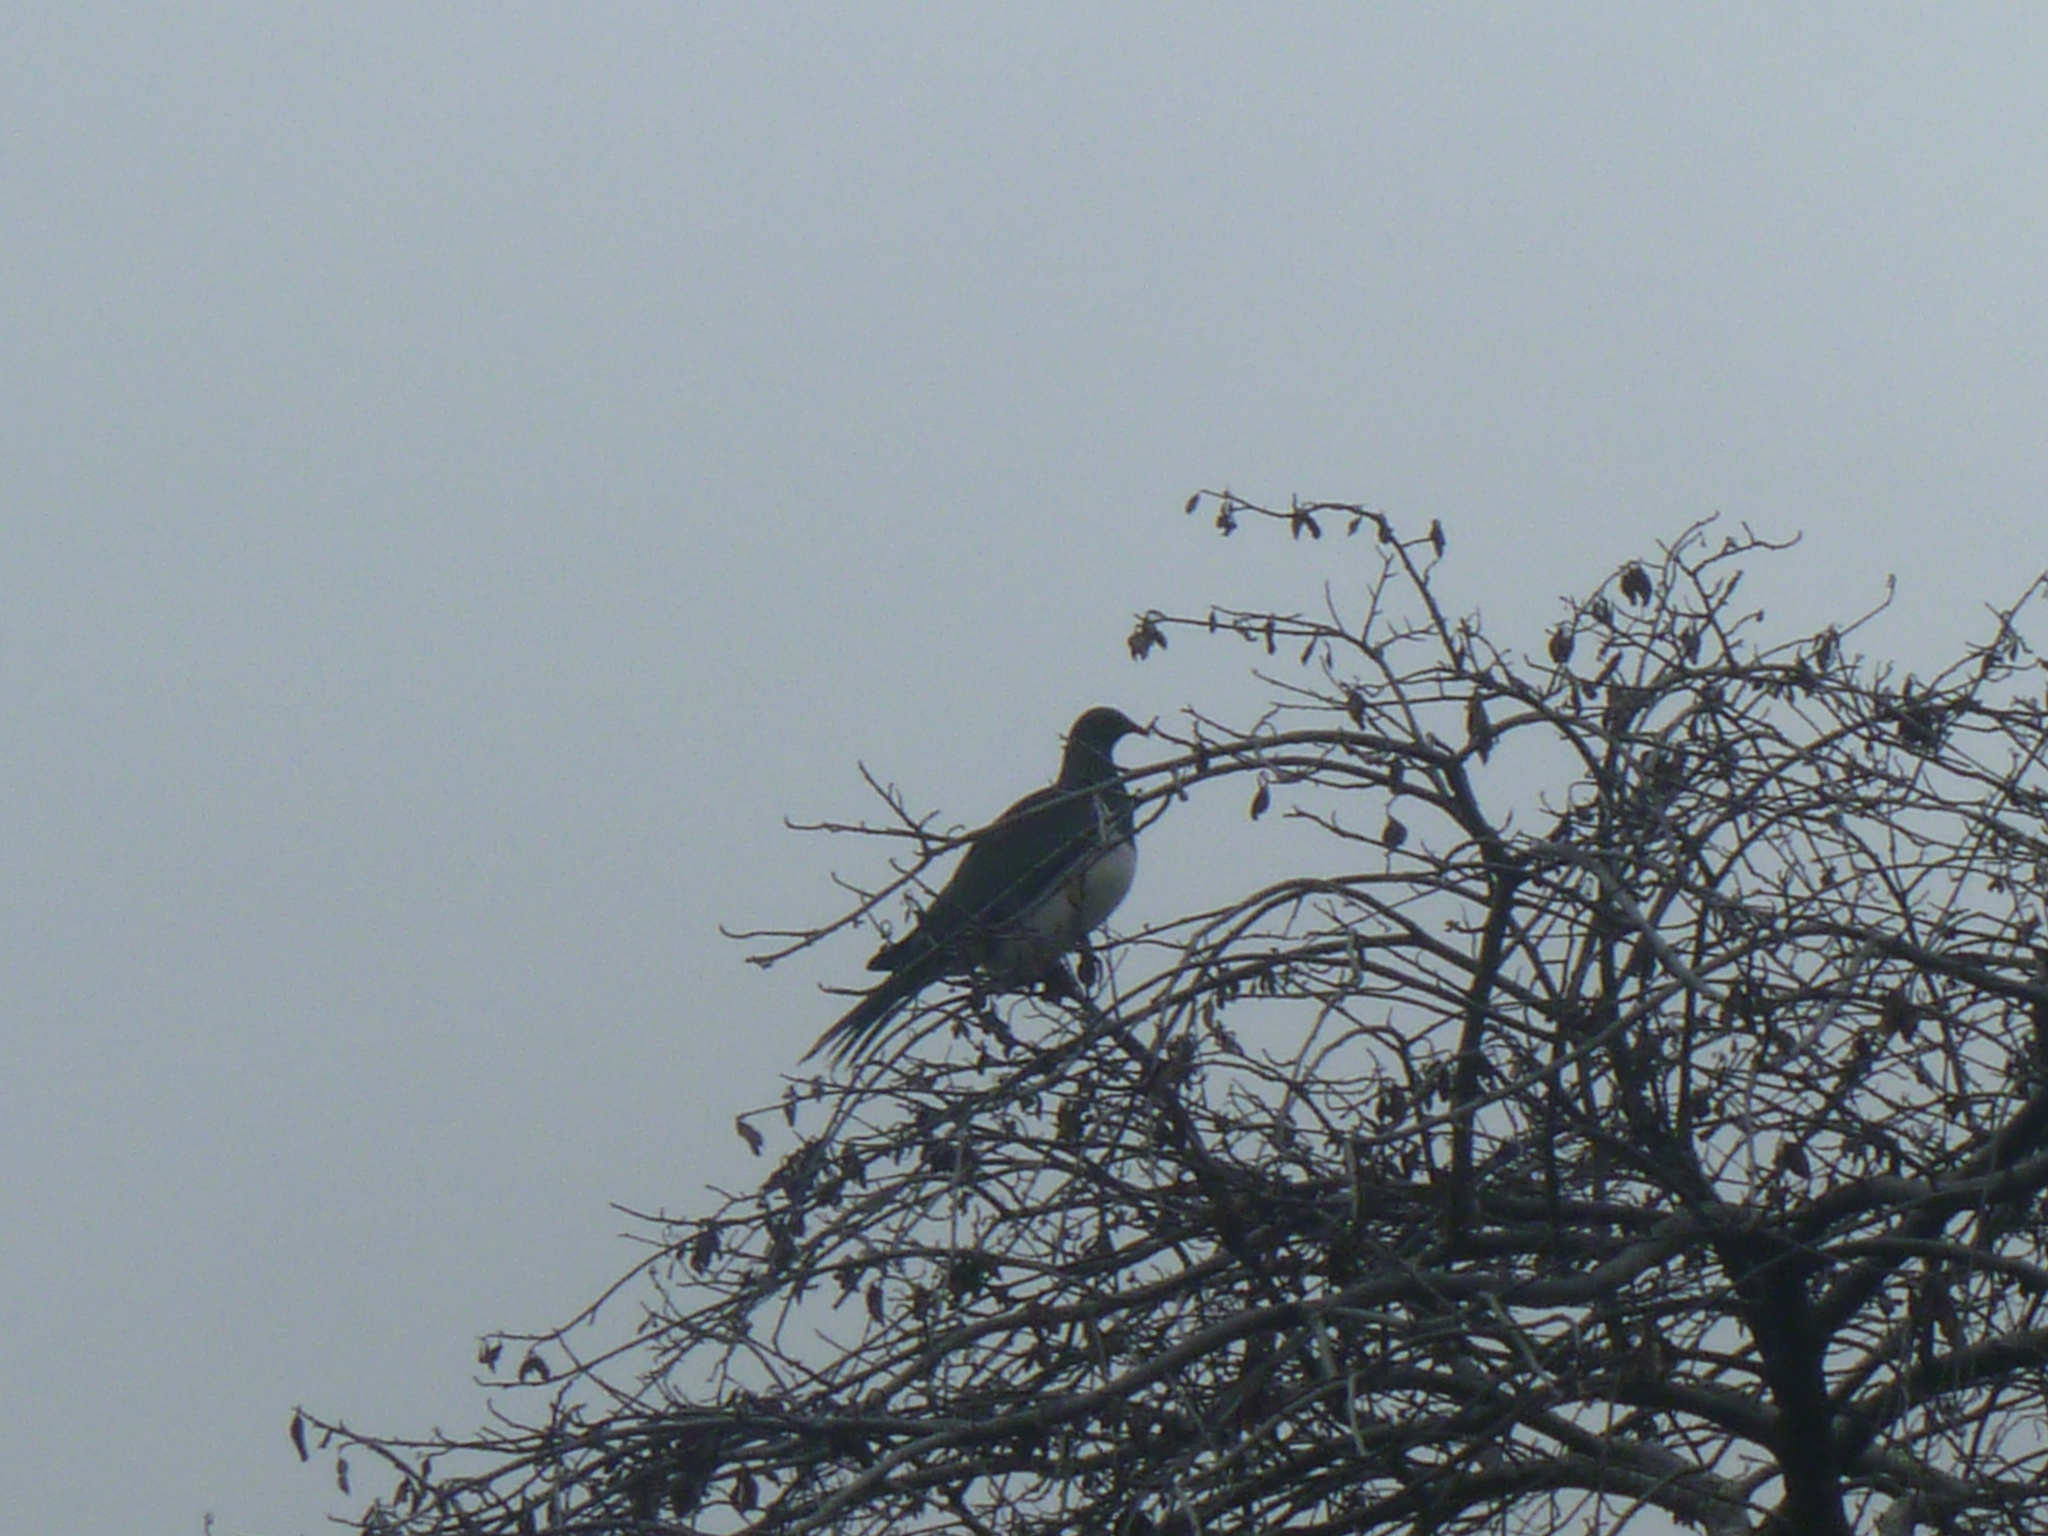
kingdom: Animalia
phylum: Chordata
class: Aves
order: Columbiformes
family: Columbidae
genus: Hemiphaga
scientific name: Hemiphaga novaeseelandiae
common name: New zealand pigeon
